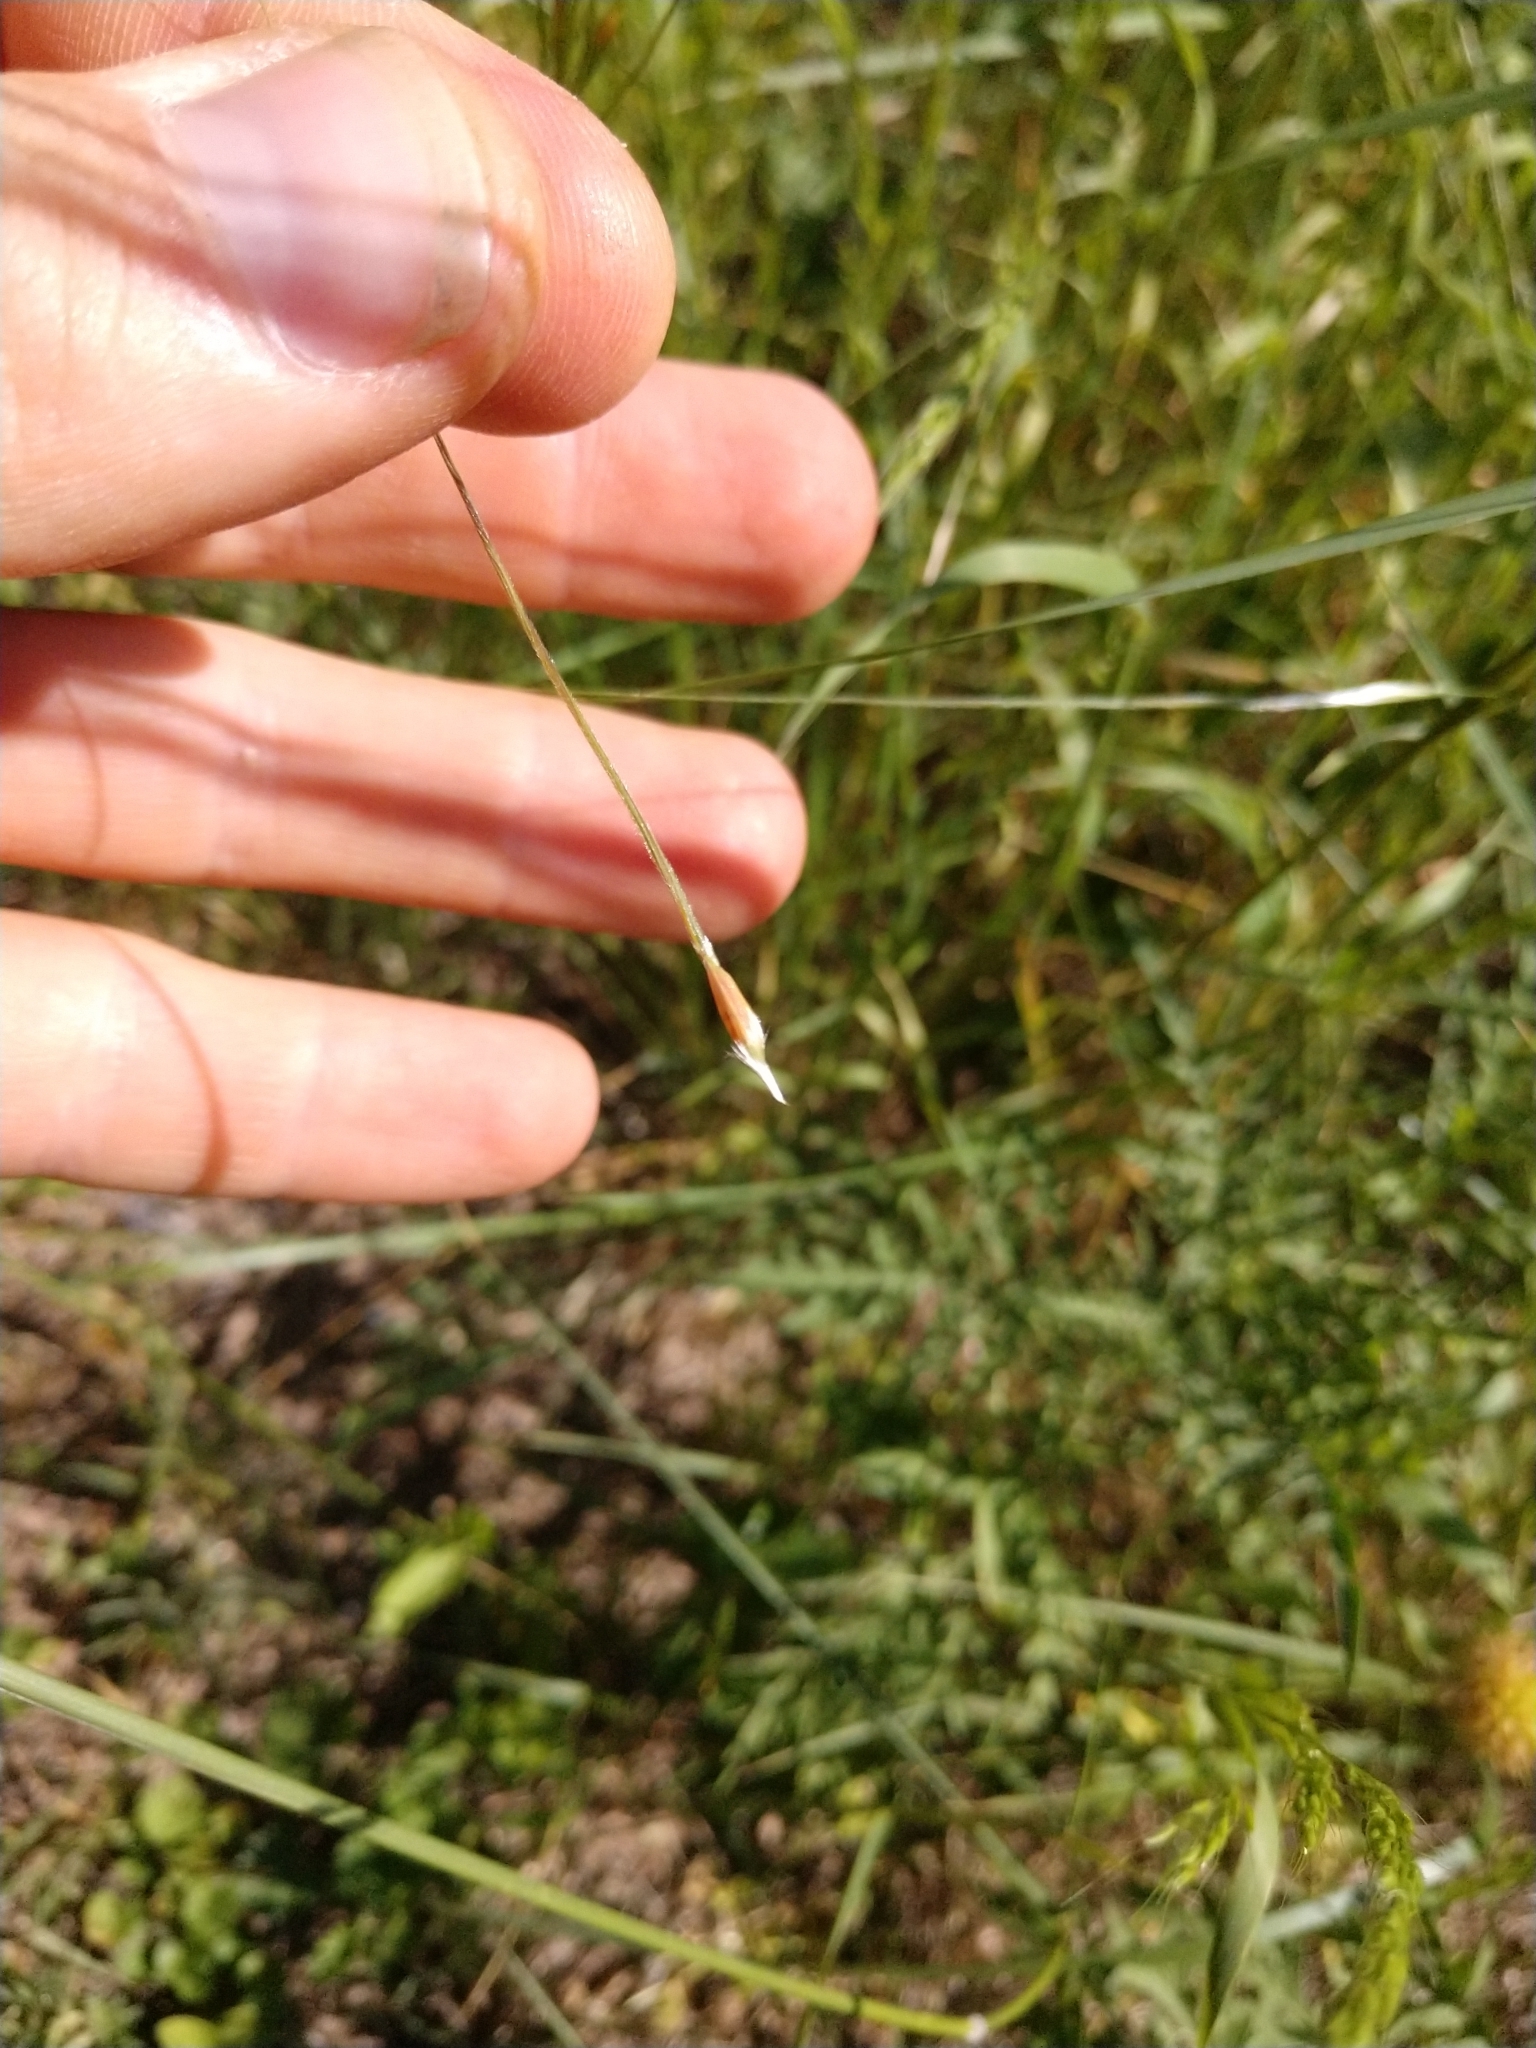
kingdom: Plantae
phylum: Tracheophyta
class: Liliopsida
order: Poales
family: Poaceae
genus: Nassella
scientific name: Nassella leucotricha
